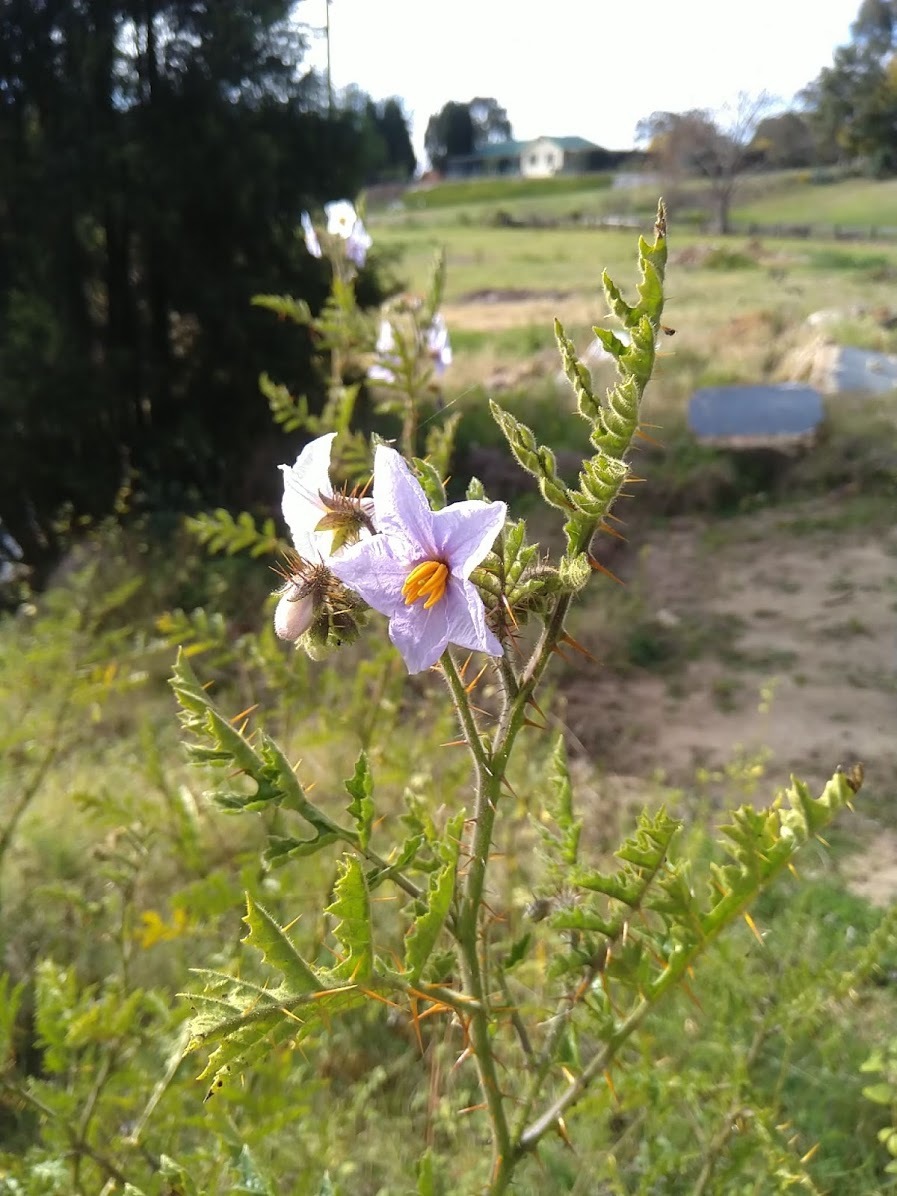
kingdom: Plantae
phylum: Tracheophyta
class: Magnoliopsida
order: Solanales
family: Solanaceae
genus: Solanum
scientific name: Solanum sisymbriifolium
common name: Red buffalo-bur
